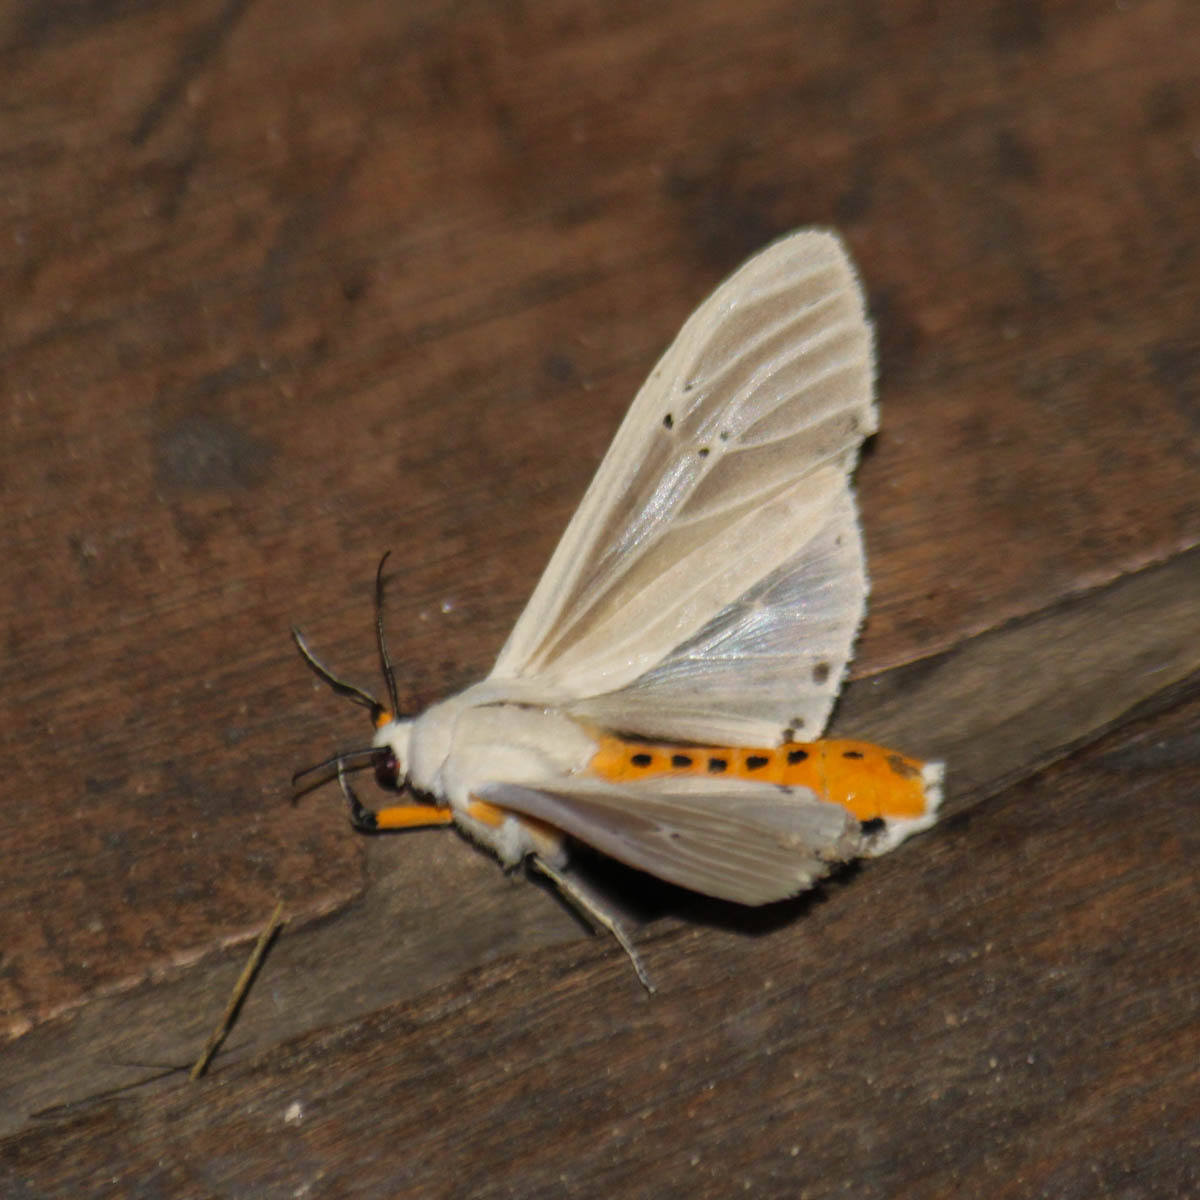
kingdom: Animalia
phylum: Arthropoda
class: Insecta
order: Lepidoptera
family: Erebidae
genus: Creatonotos
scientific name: Creatonotos transiens
